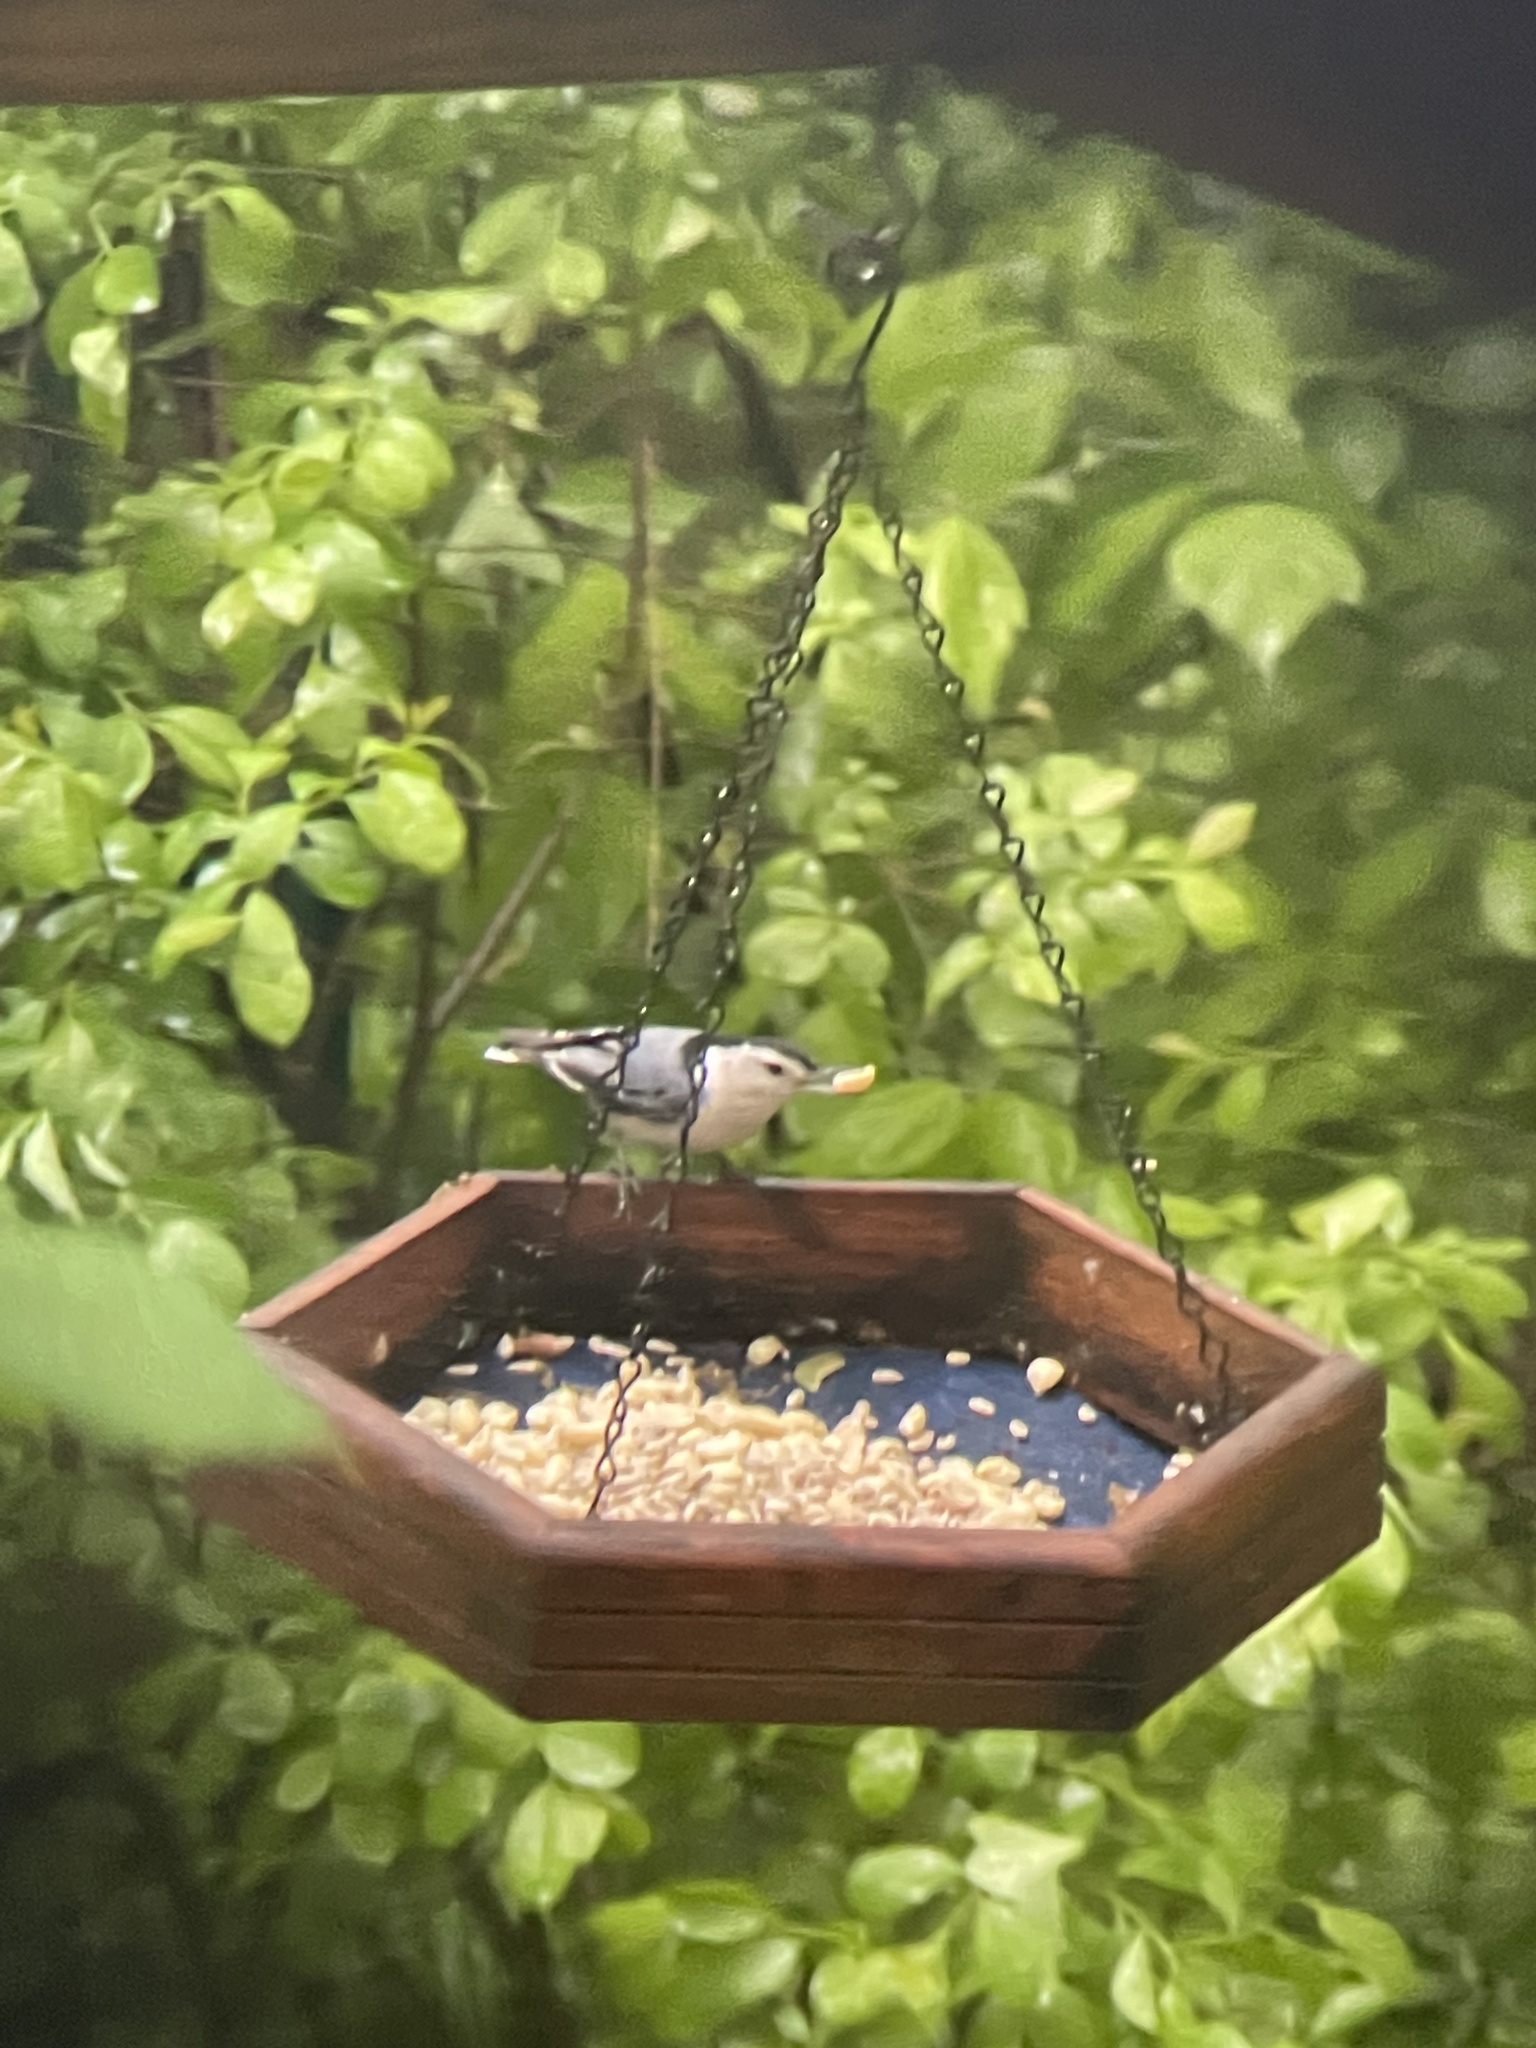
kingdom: Animalia
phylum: Chordata
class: Aves
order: Passeriformes
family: Sittidae
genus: Sitta
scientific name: Sitta carolinensis
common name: White-breasted nuthatch
